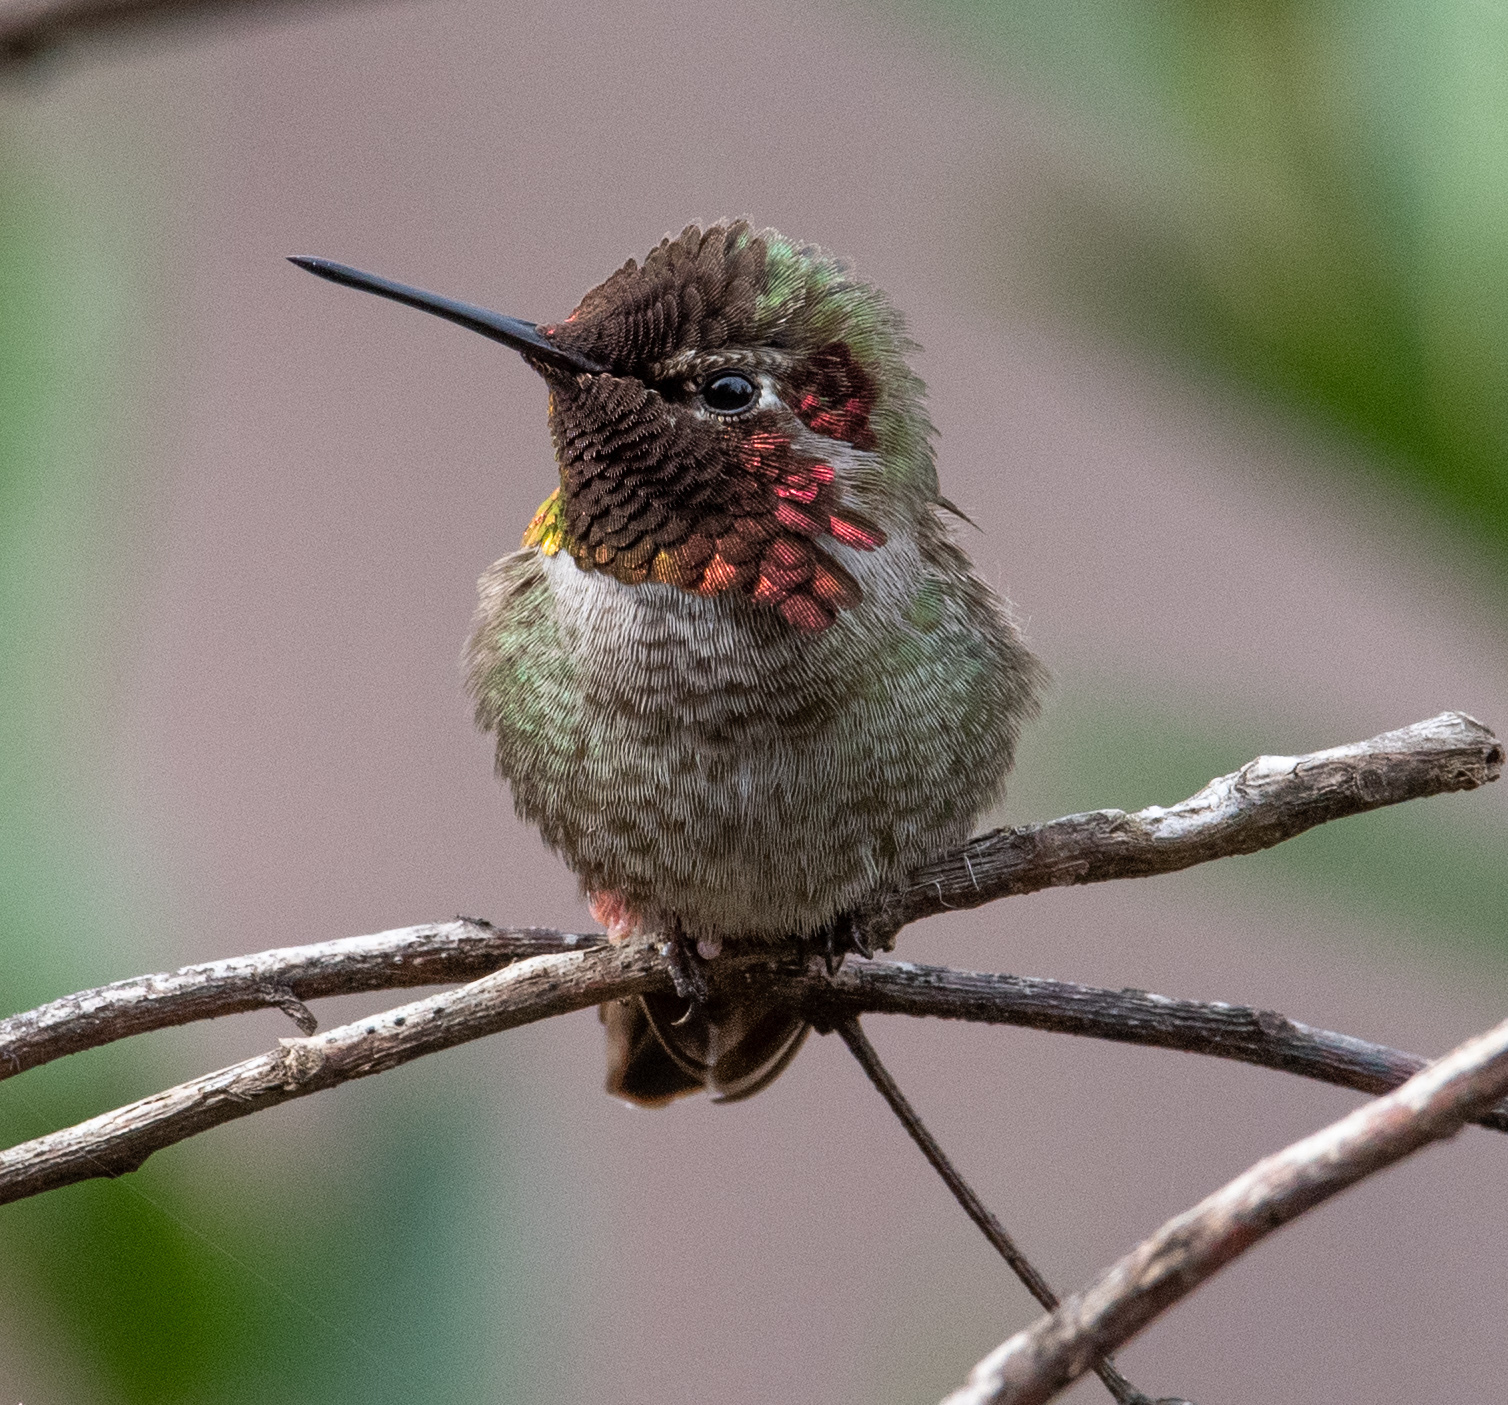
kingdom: Animalia
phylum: Chordata
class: Aves
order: Apodiformes
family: Trochilidae
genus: Calypte
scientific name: Calypte anna
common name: Anna's hummingbird
